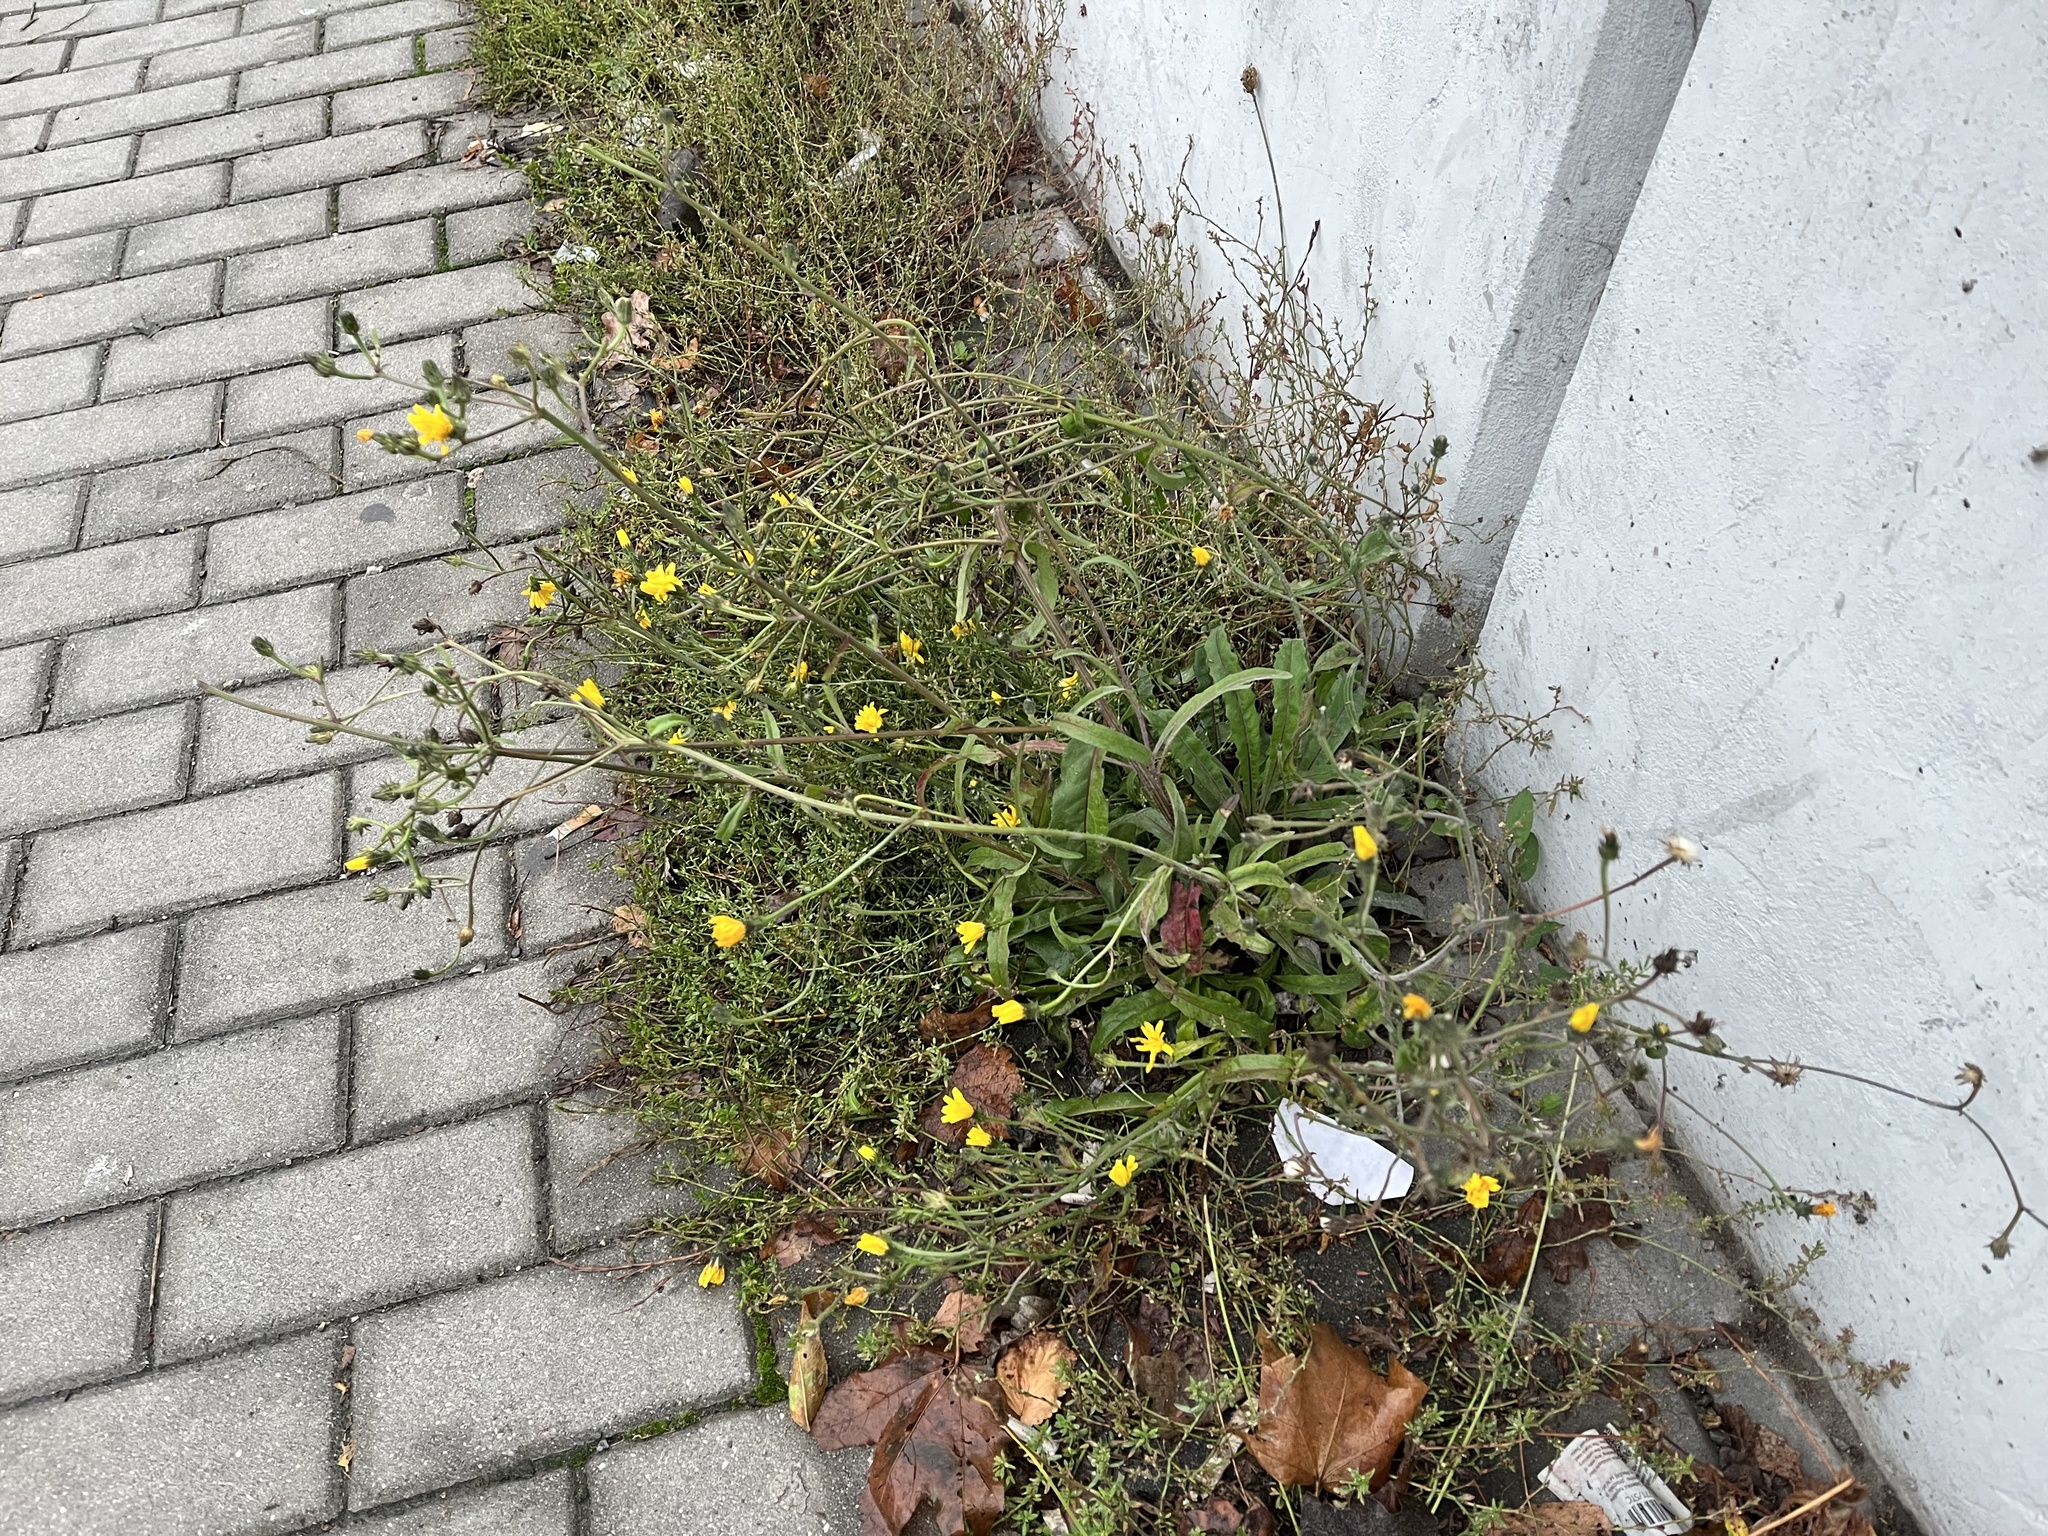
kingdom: Plantae
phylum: Tracheophyta
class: Magnoliopsida
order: Asterales
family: Asteraceae
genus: Picris
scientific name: Picris hieracioides
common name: Hawkweed oxtongue
